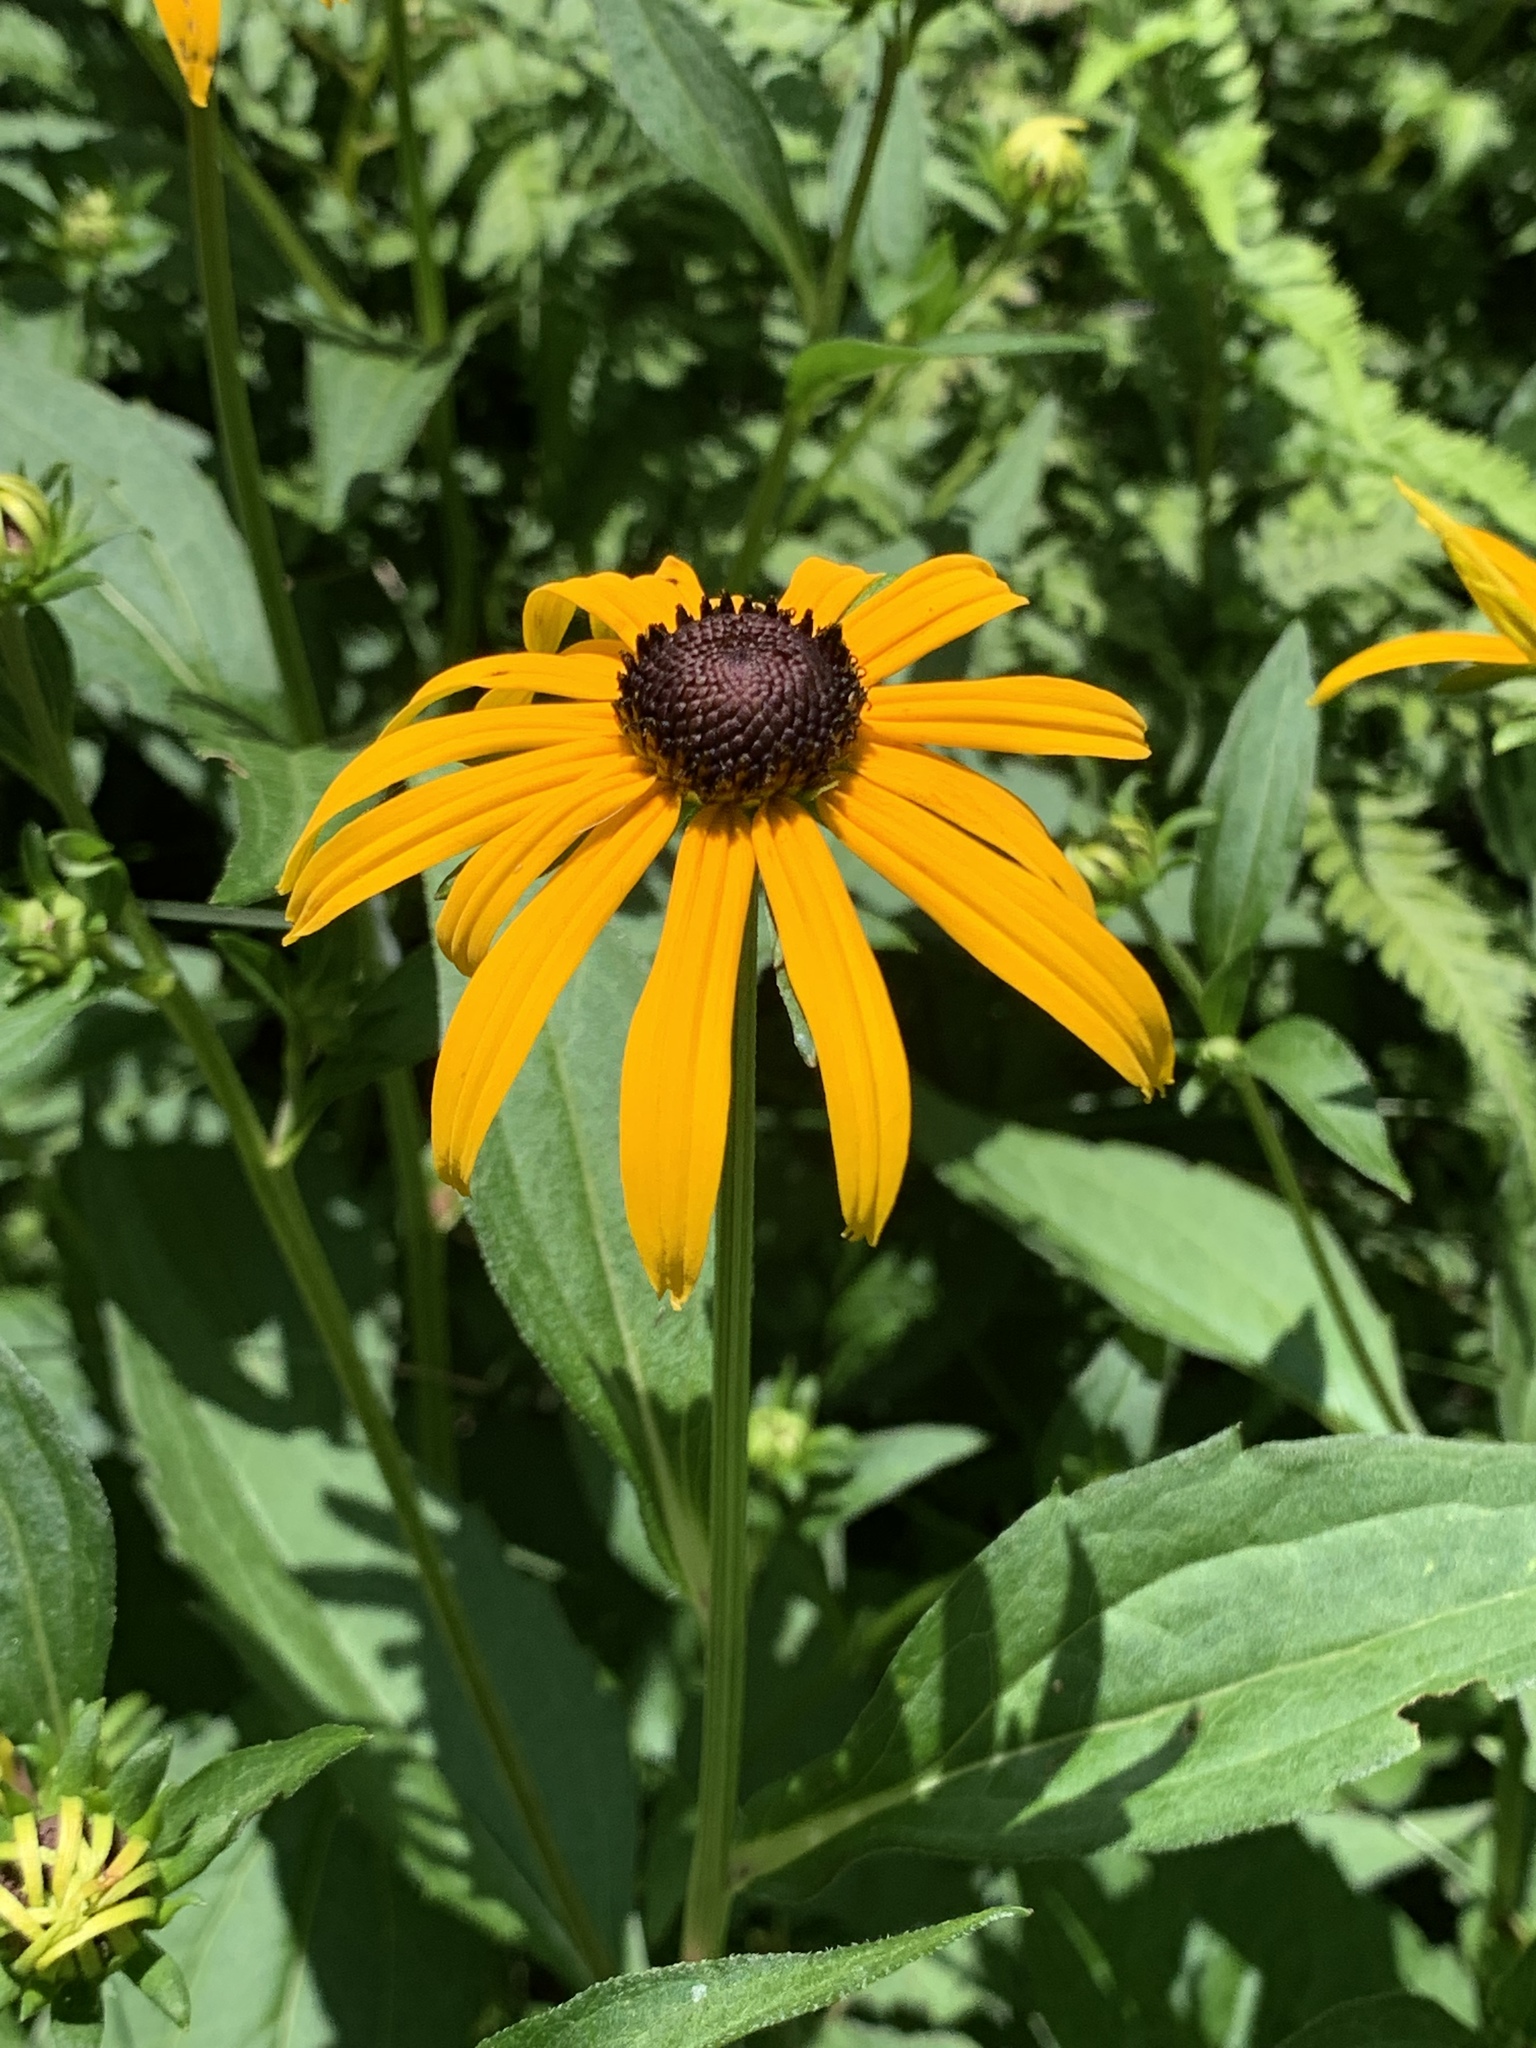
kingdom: Plantae
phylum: Tracheophyta
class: Magnoliopsida
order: Asterales
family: Asteraceae
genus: Rudbeckia
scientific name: Rudbeckia hirta
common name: Black-eyed-susan
